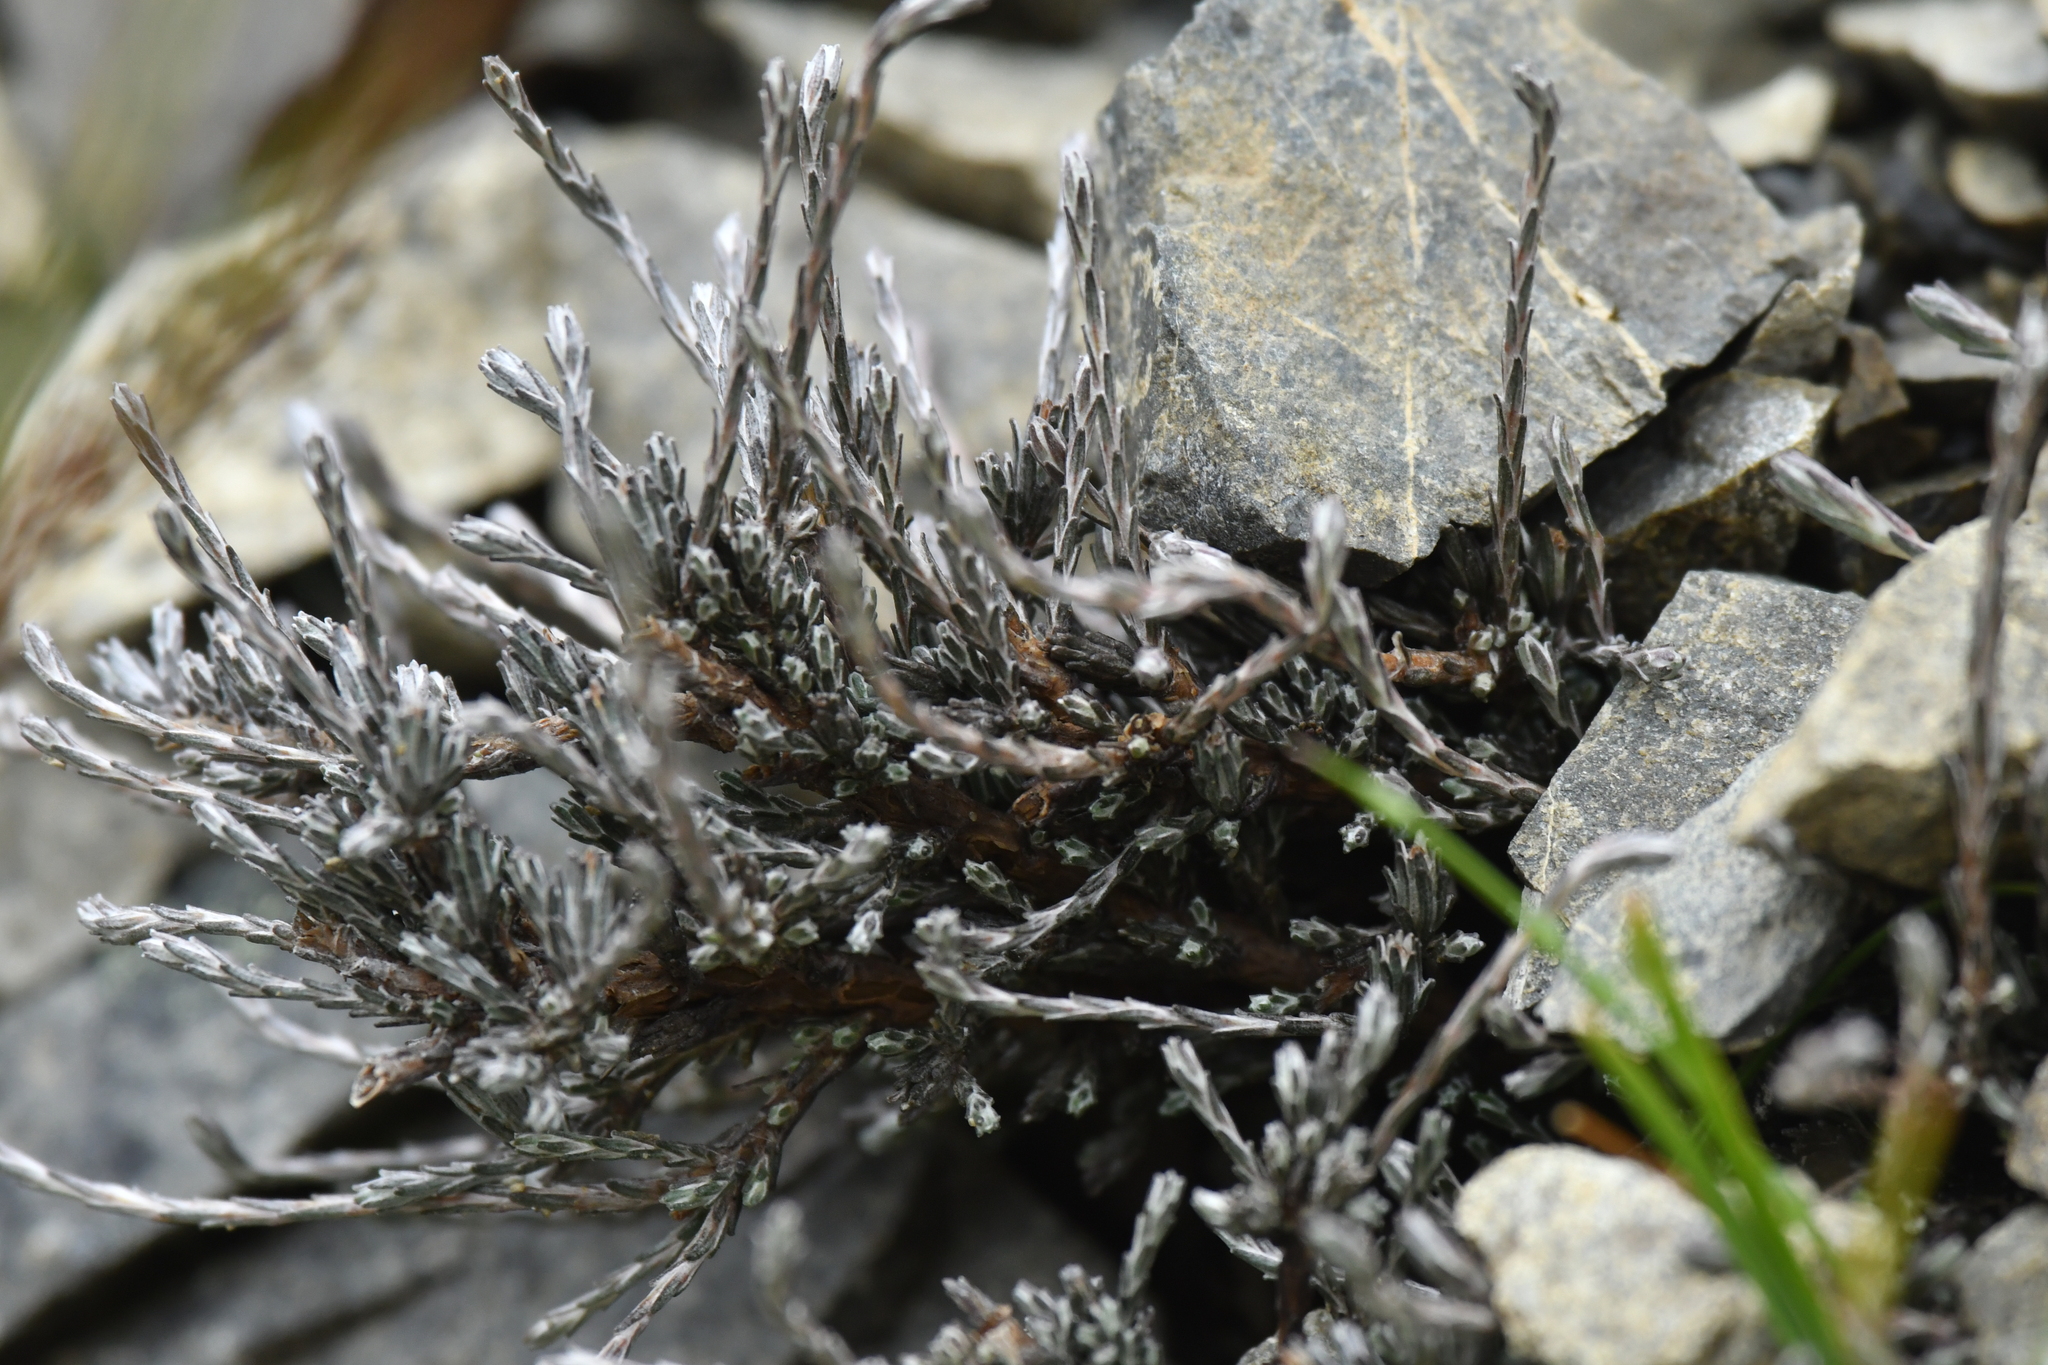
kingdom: Plantae
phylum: Tracheophyta
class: Magnoliopsida
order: Asterales
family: Asteraceae
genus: Ozothamnus
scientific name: Ozothamnus depressus
